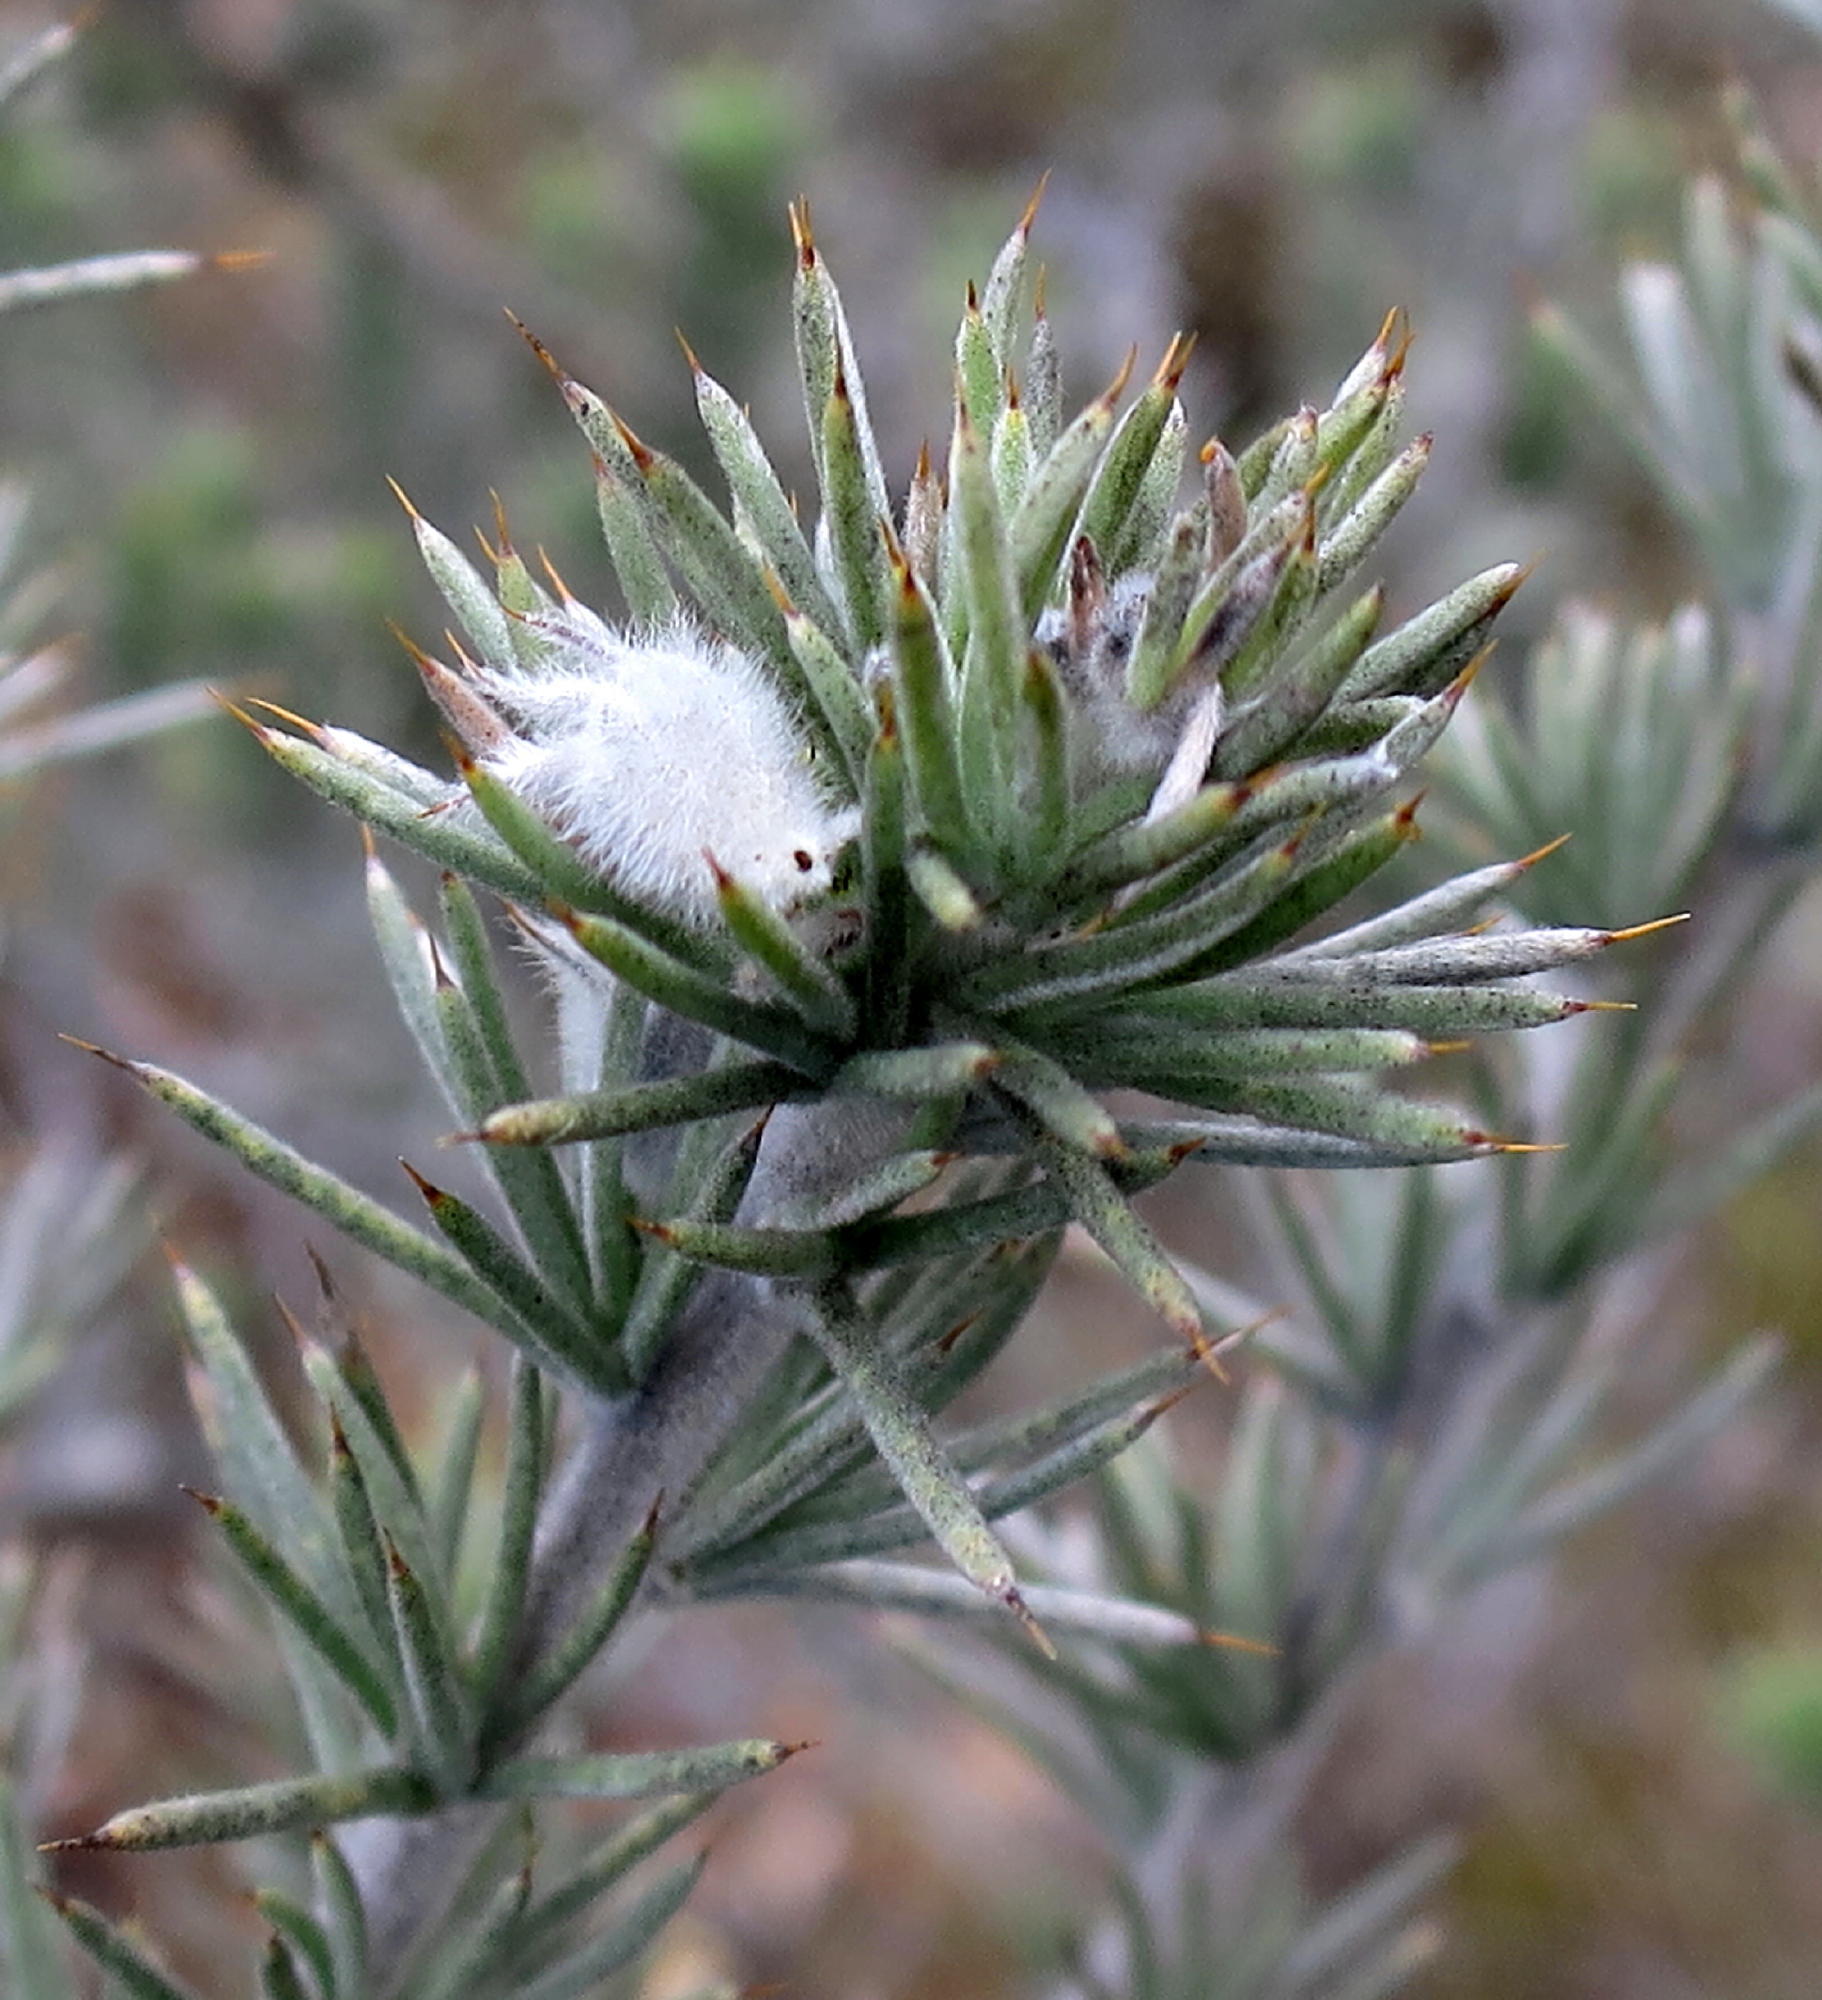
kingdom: Plantae
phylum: Tracheophyta
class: Magnoliopsida
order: Fabales
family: Fabaceae
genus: Aspalathus
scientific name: Aspalathus hystrix
